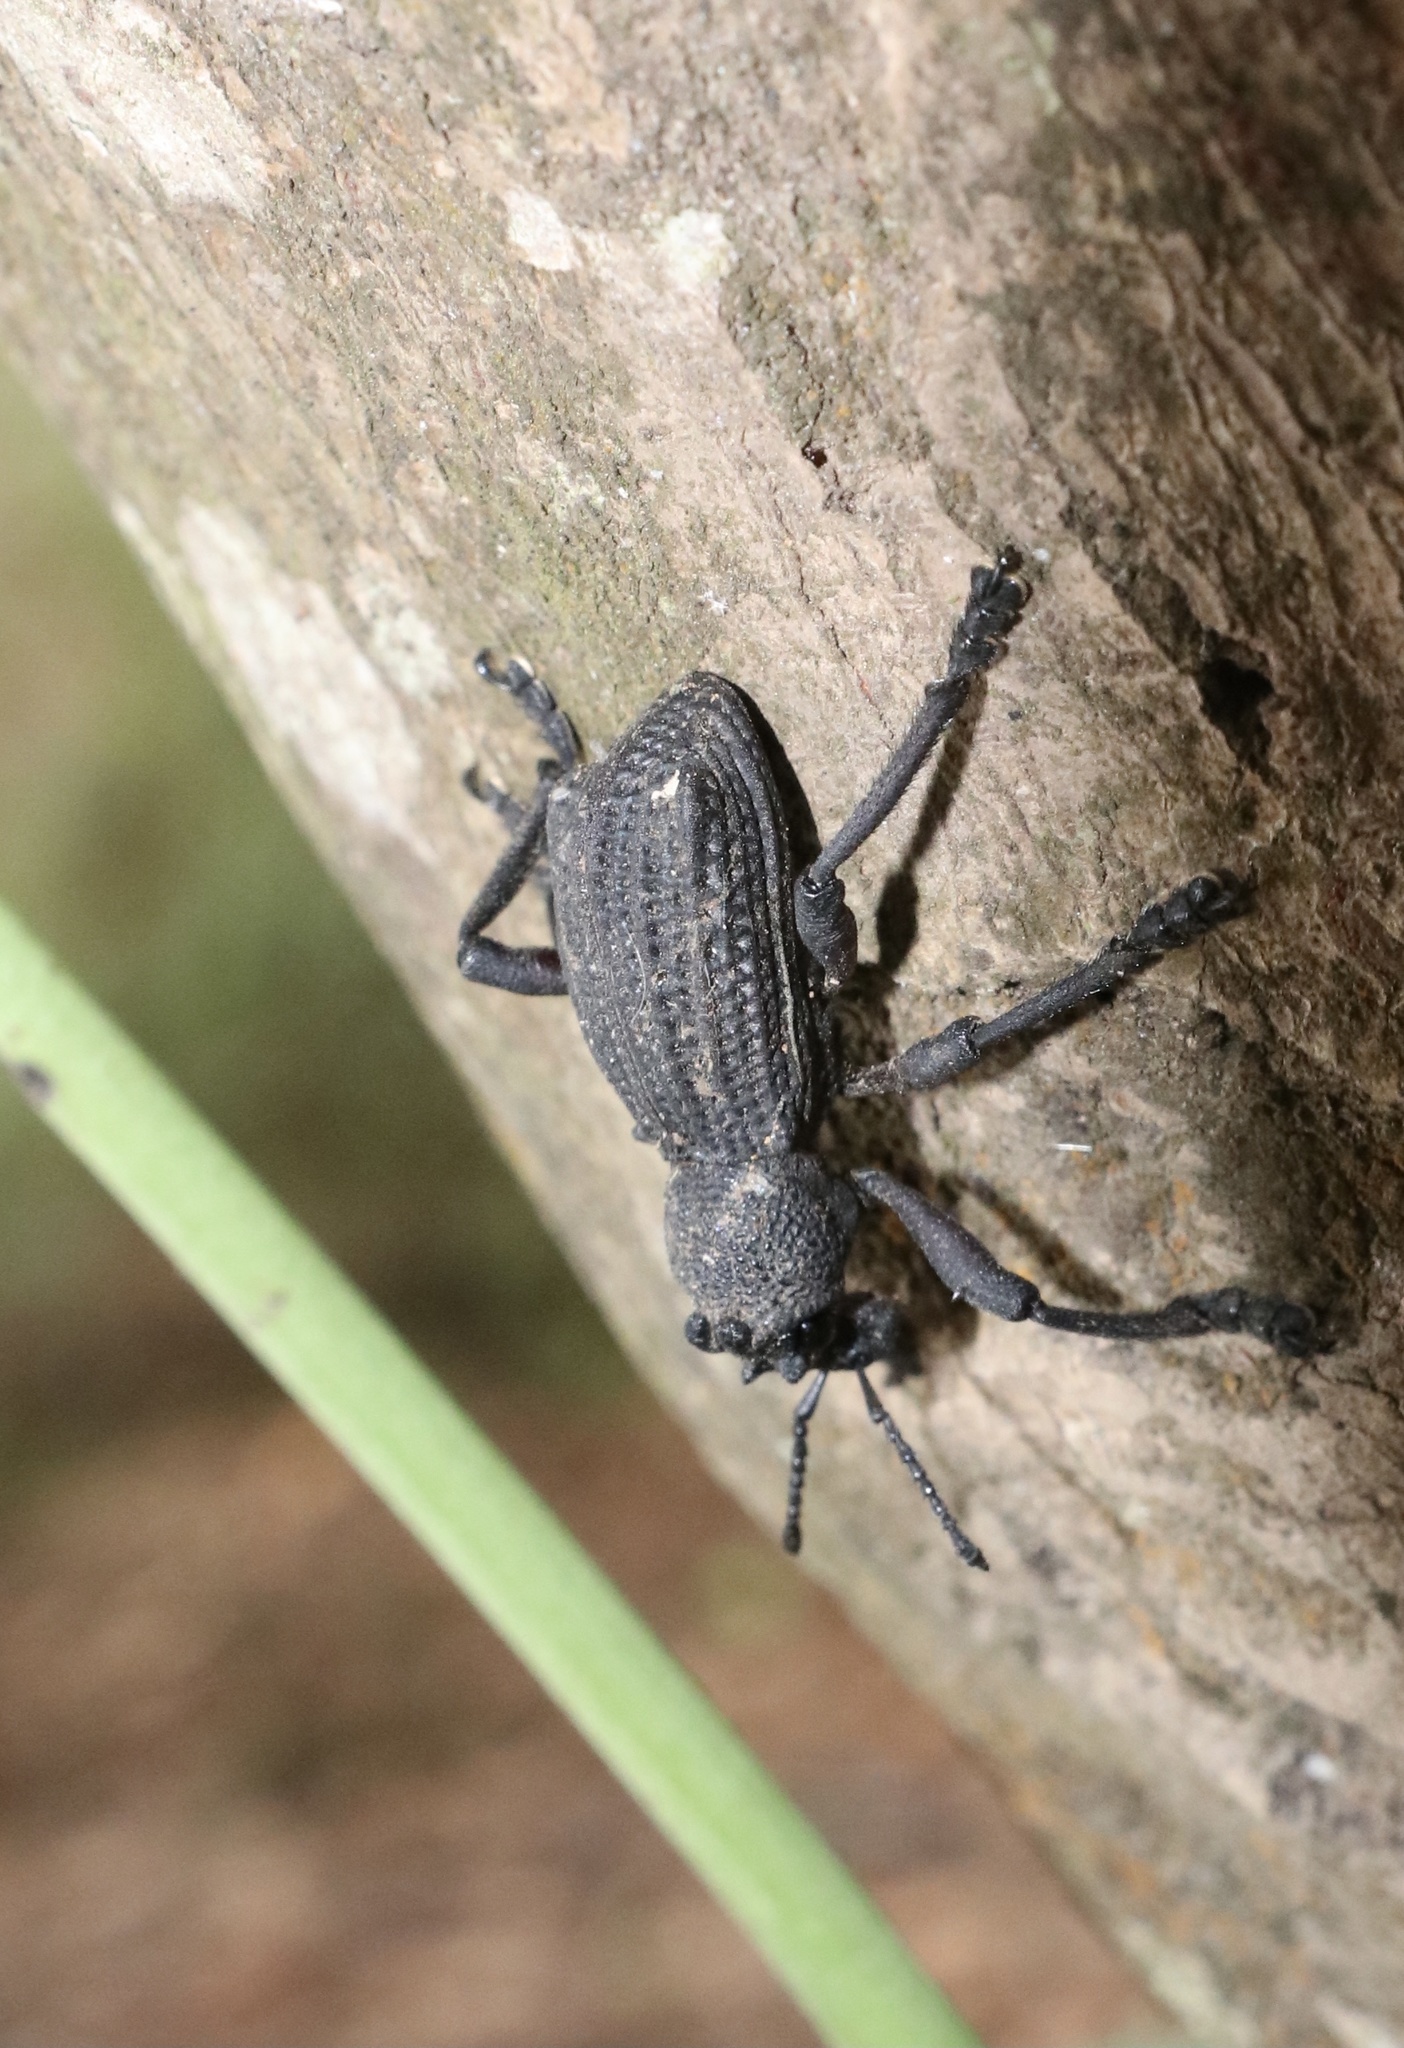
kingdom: Animalia
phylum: Arthropoda
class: Insecta
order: Coleoptera
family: Curculionidae
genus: Aegorhinus
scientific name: Aegorhinus
